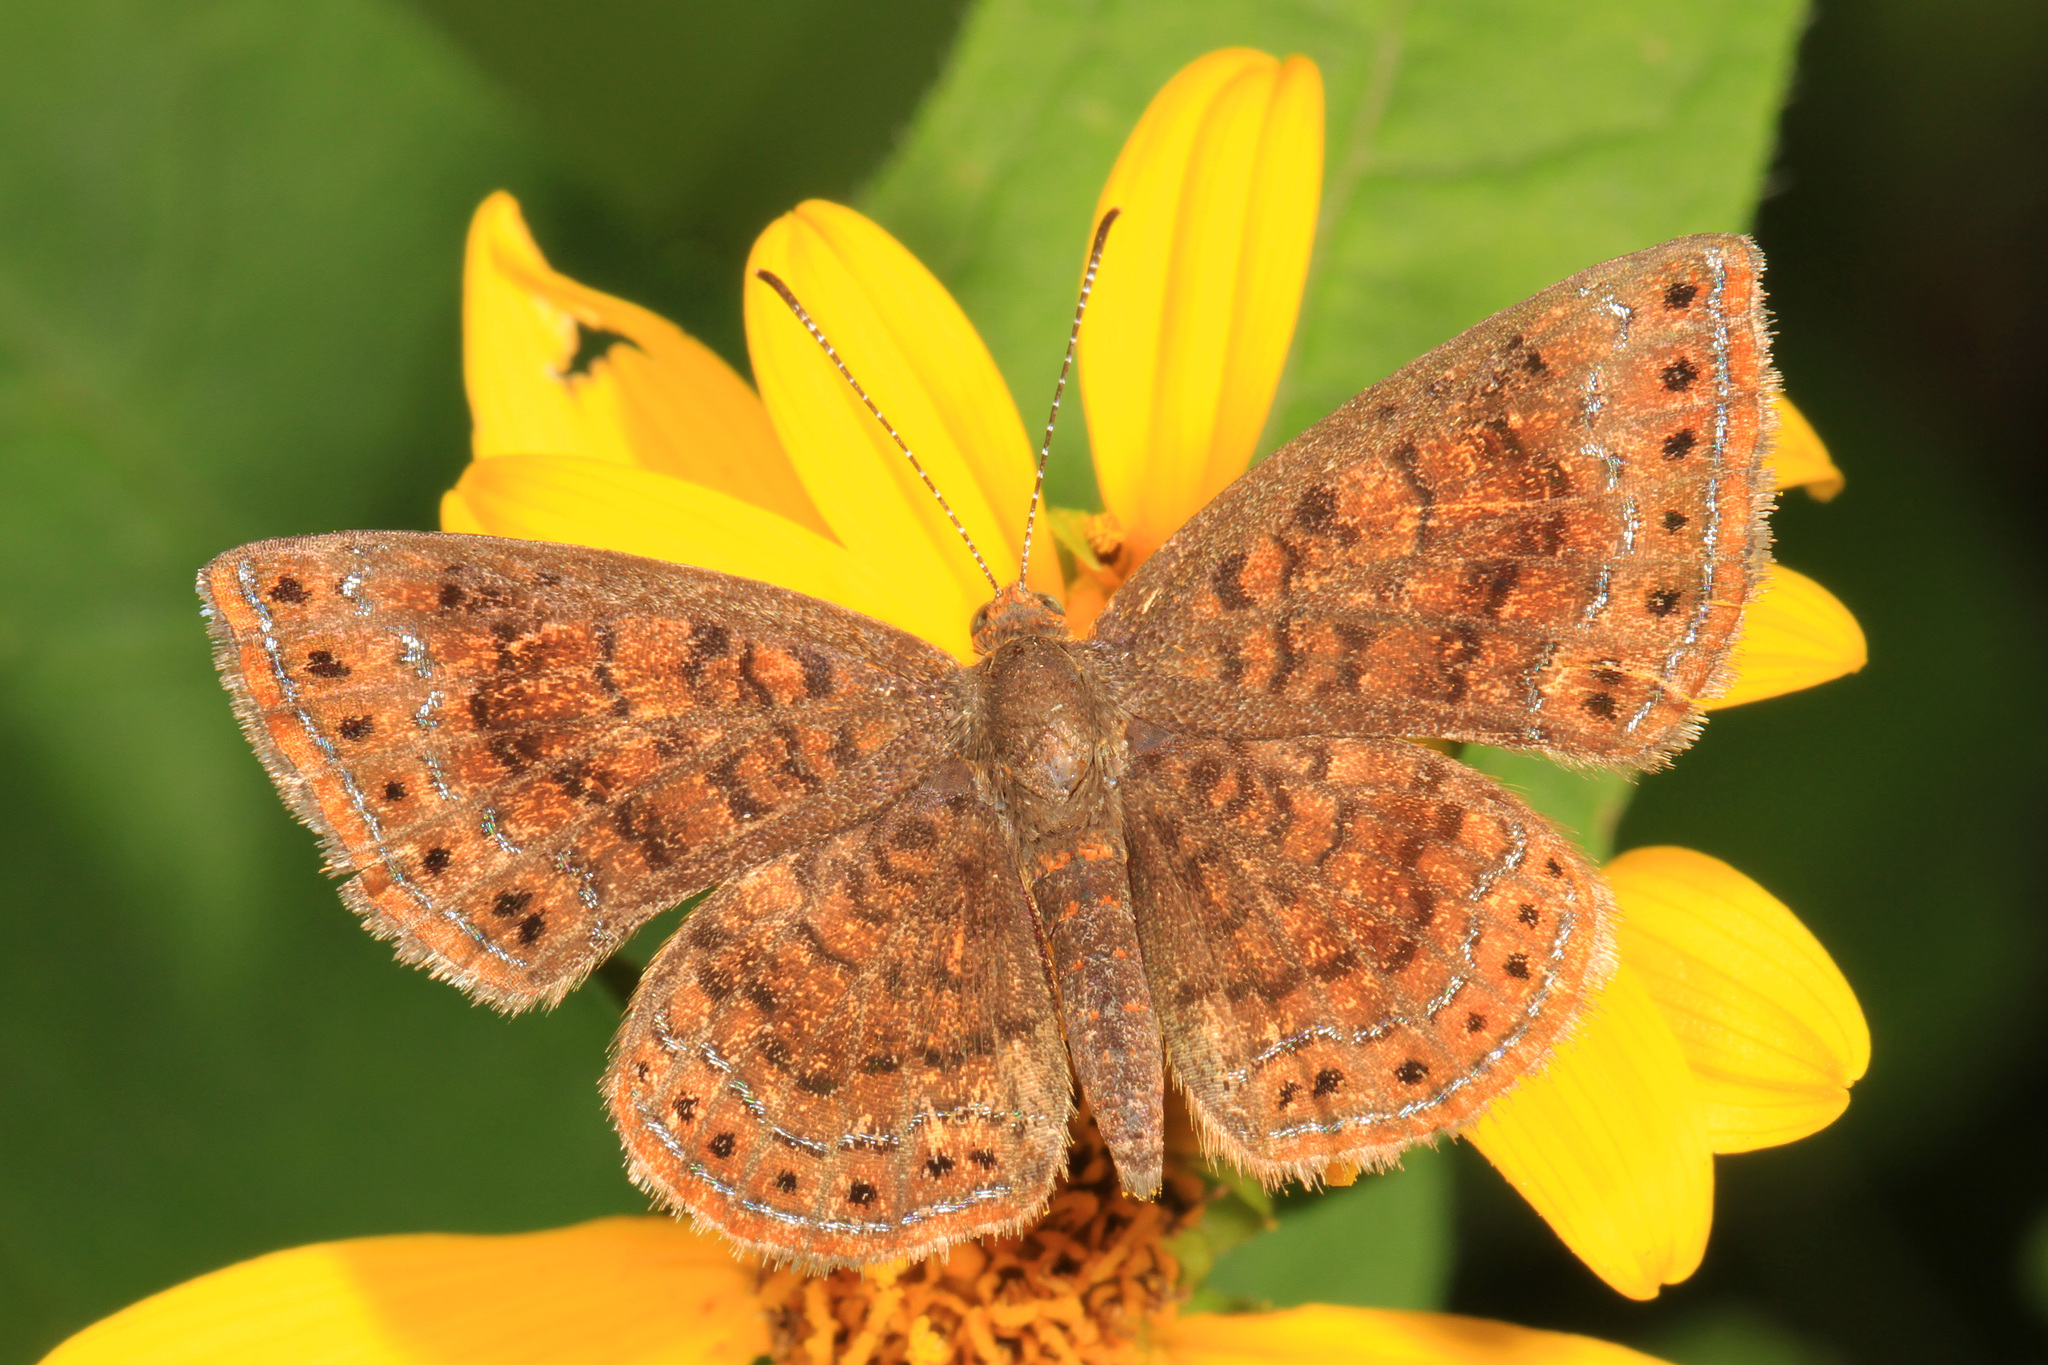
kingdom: Animalia
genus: Calephelis
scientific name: Calephelis borealis
